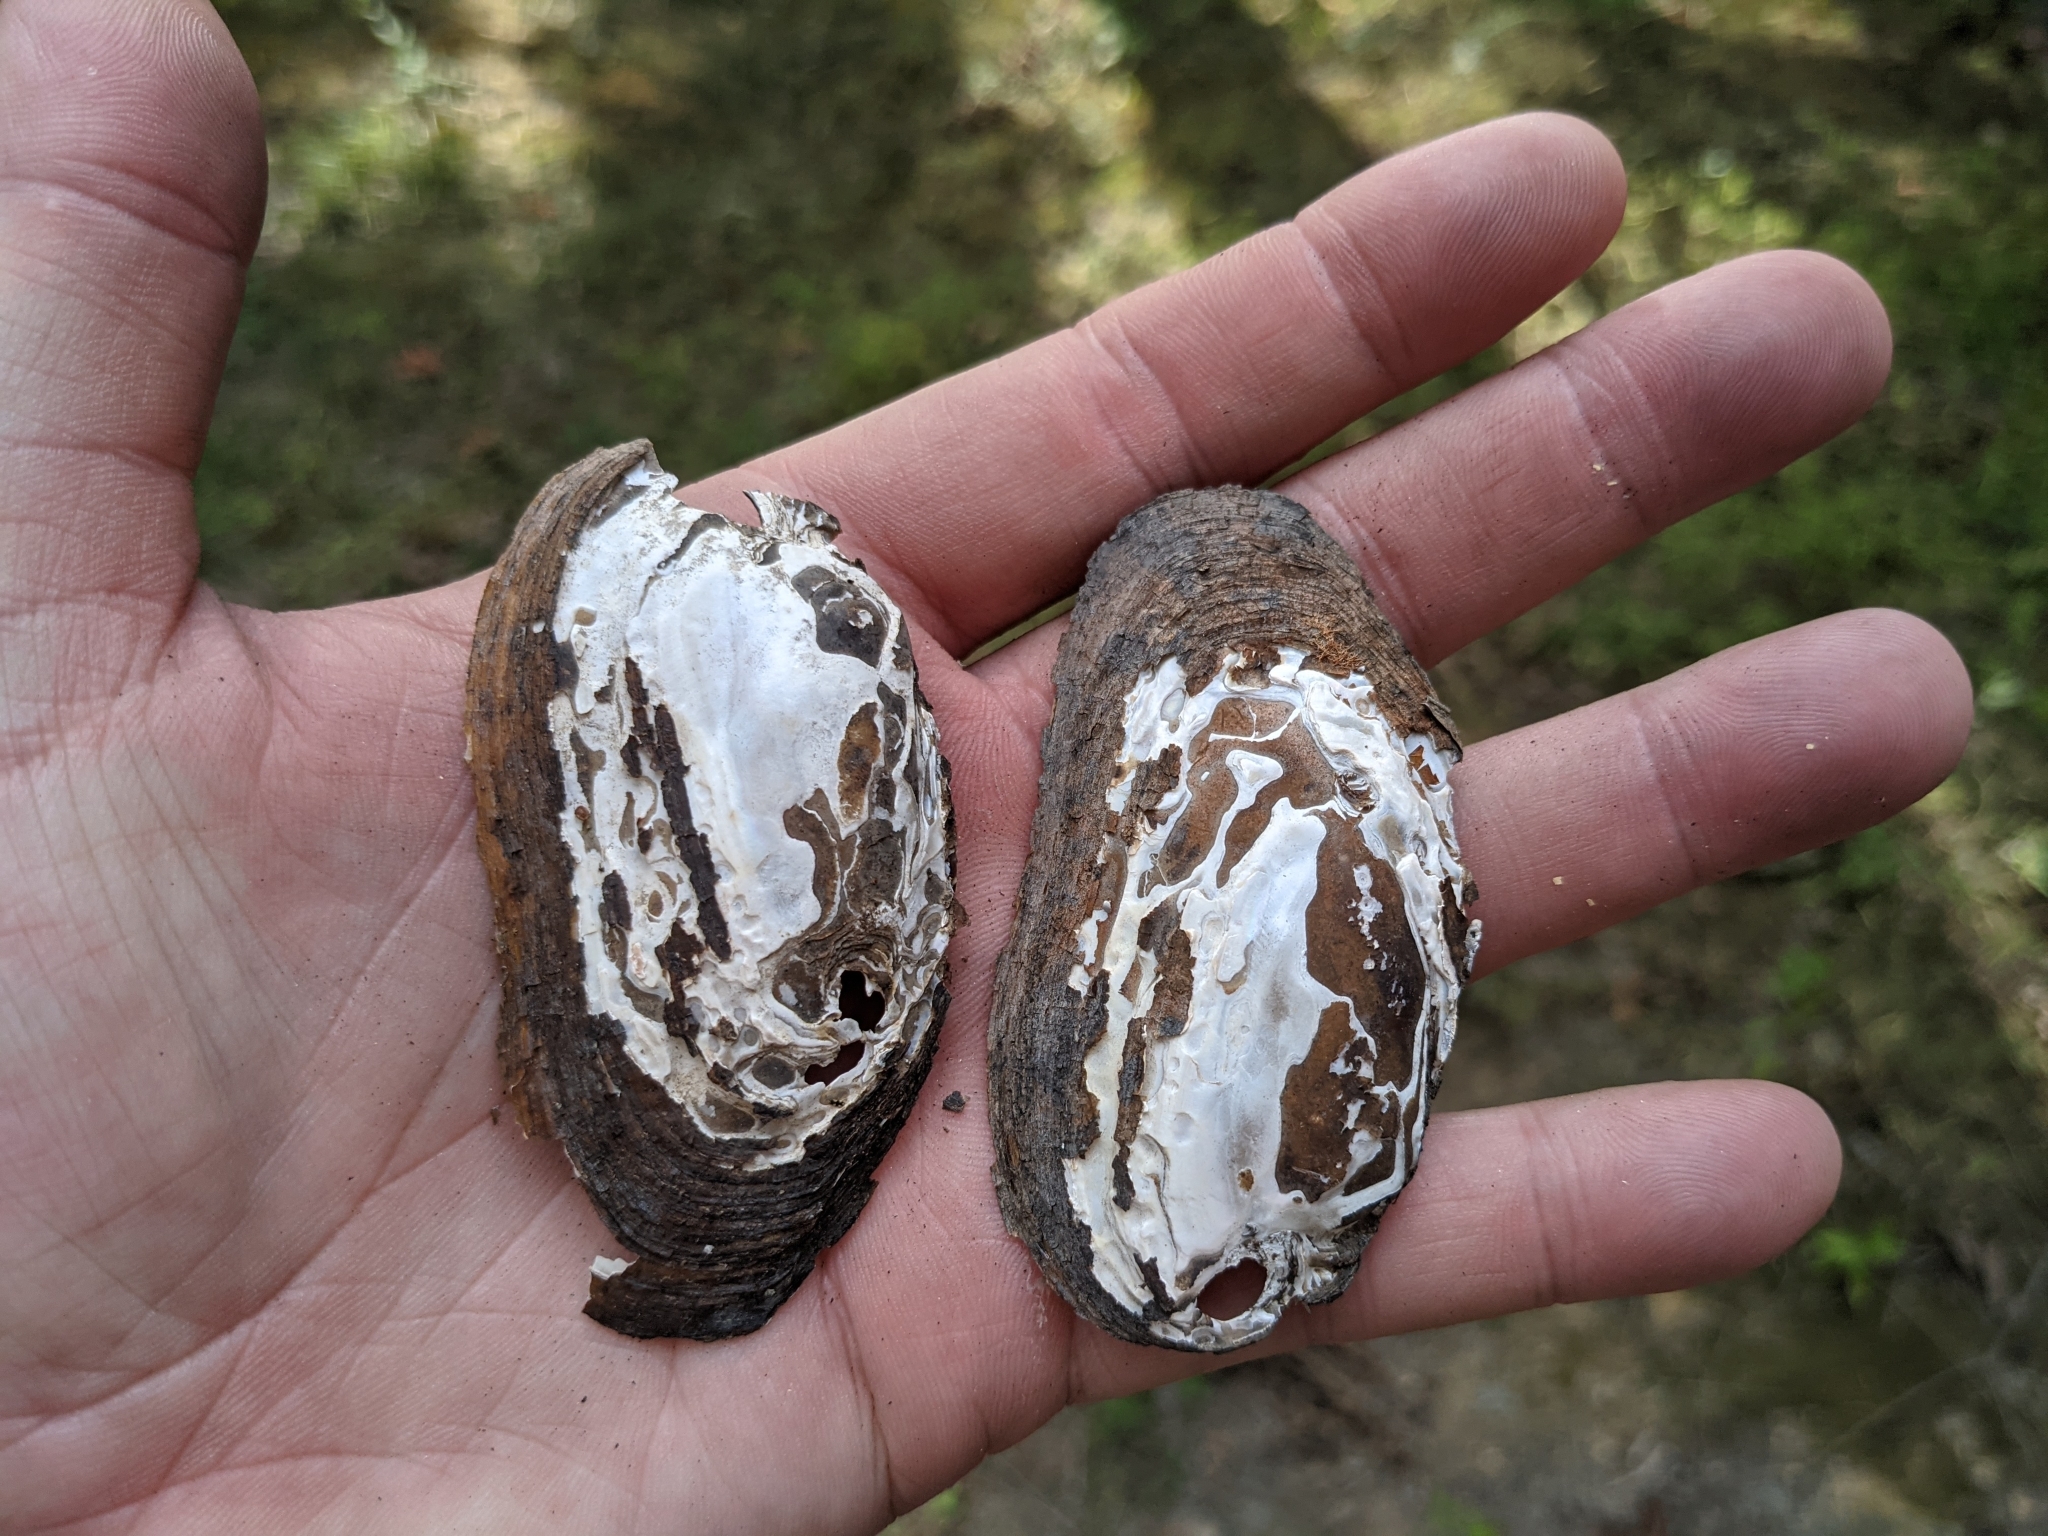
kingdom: Animalia
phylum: Mollusca
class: Bivalvia
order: Unionida
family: Unionidae
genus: Elliptio
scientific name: Elliptio complanata
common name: Eastern elliptio
